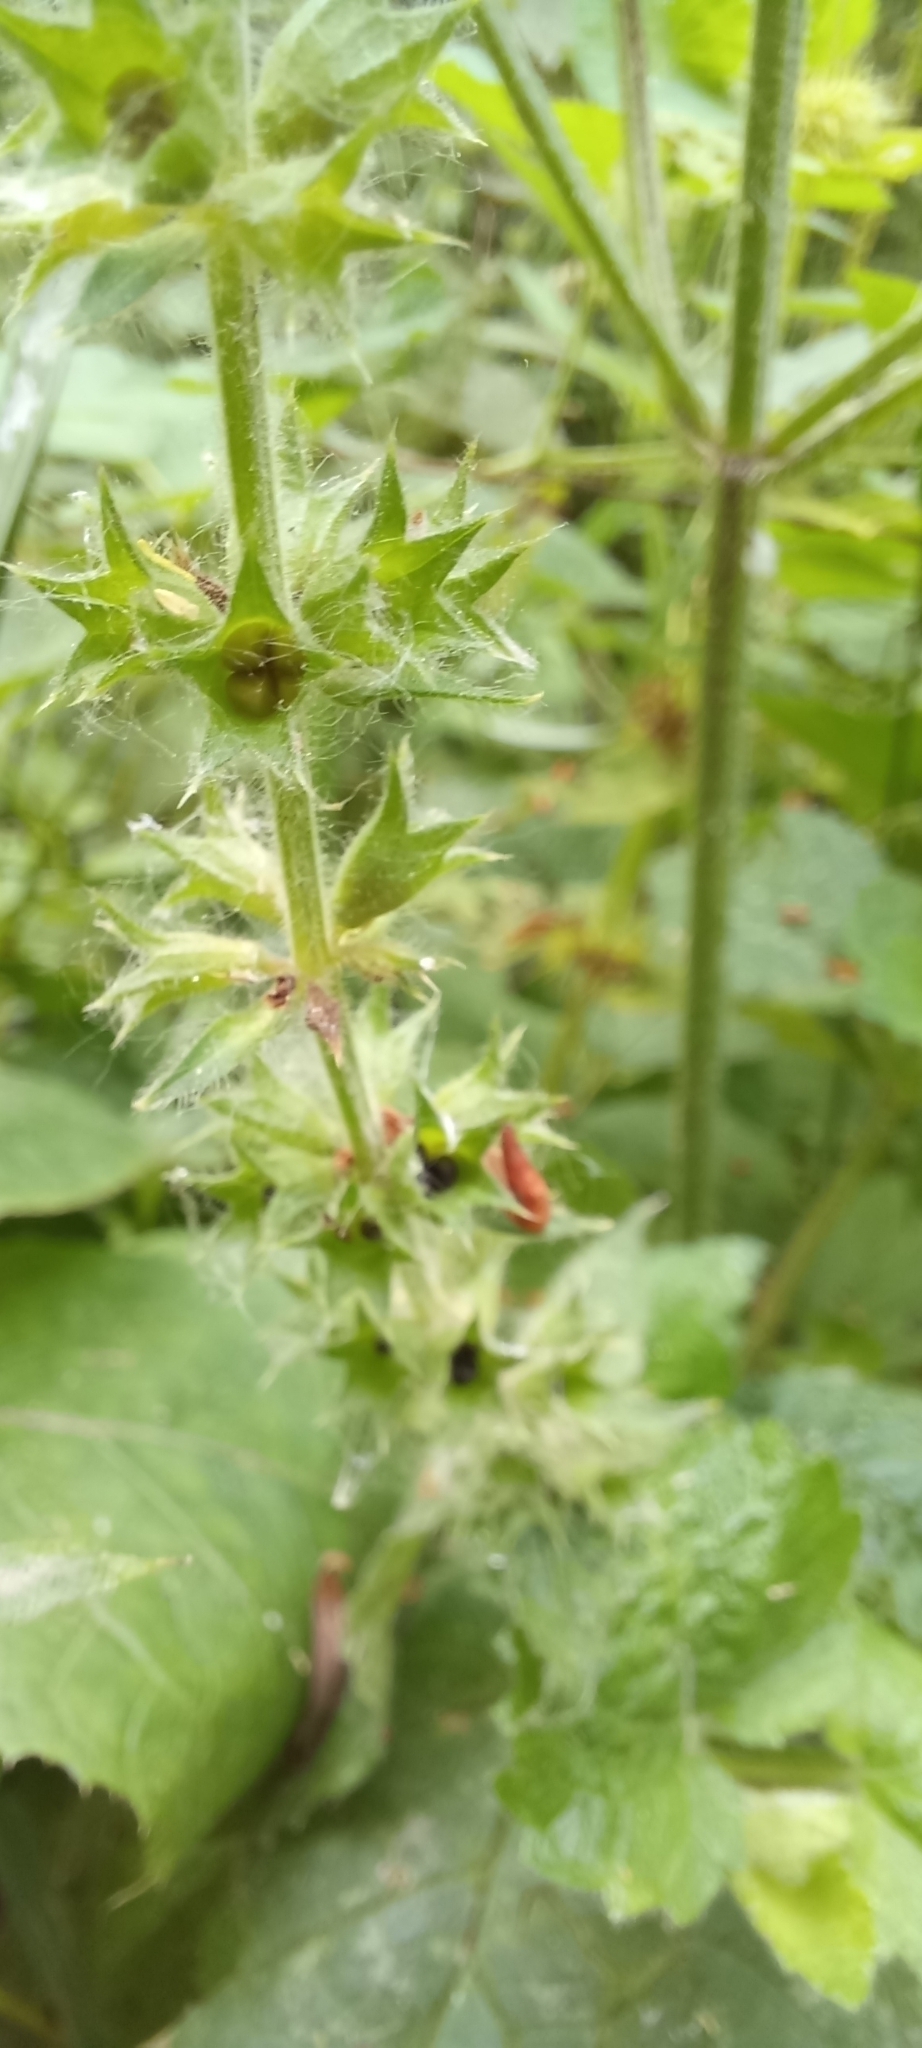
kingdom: Plantae
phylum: Tracheophyta
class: Magnoliopsida
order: Lamiales
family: Lamiaceae
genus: Stachys
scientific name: Stachys sylvatica
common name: Hedge woundwort
